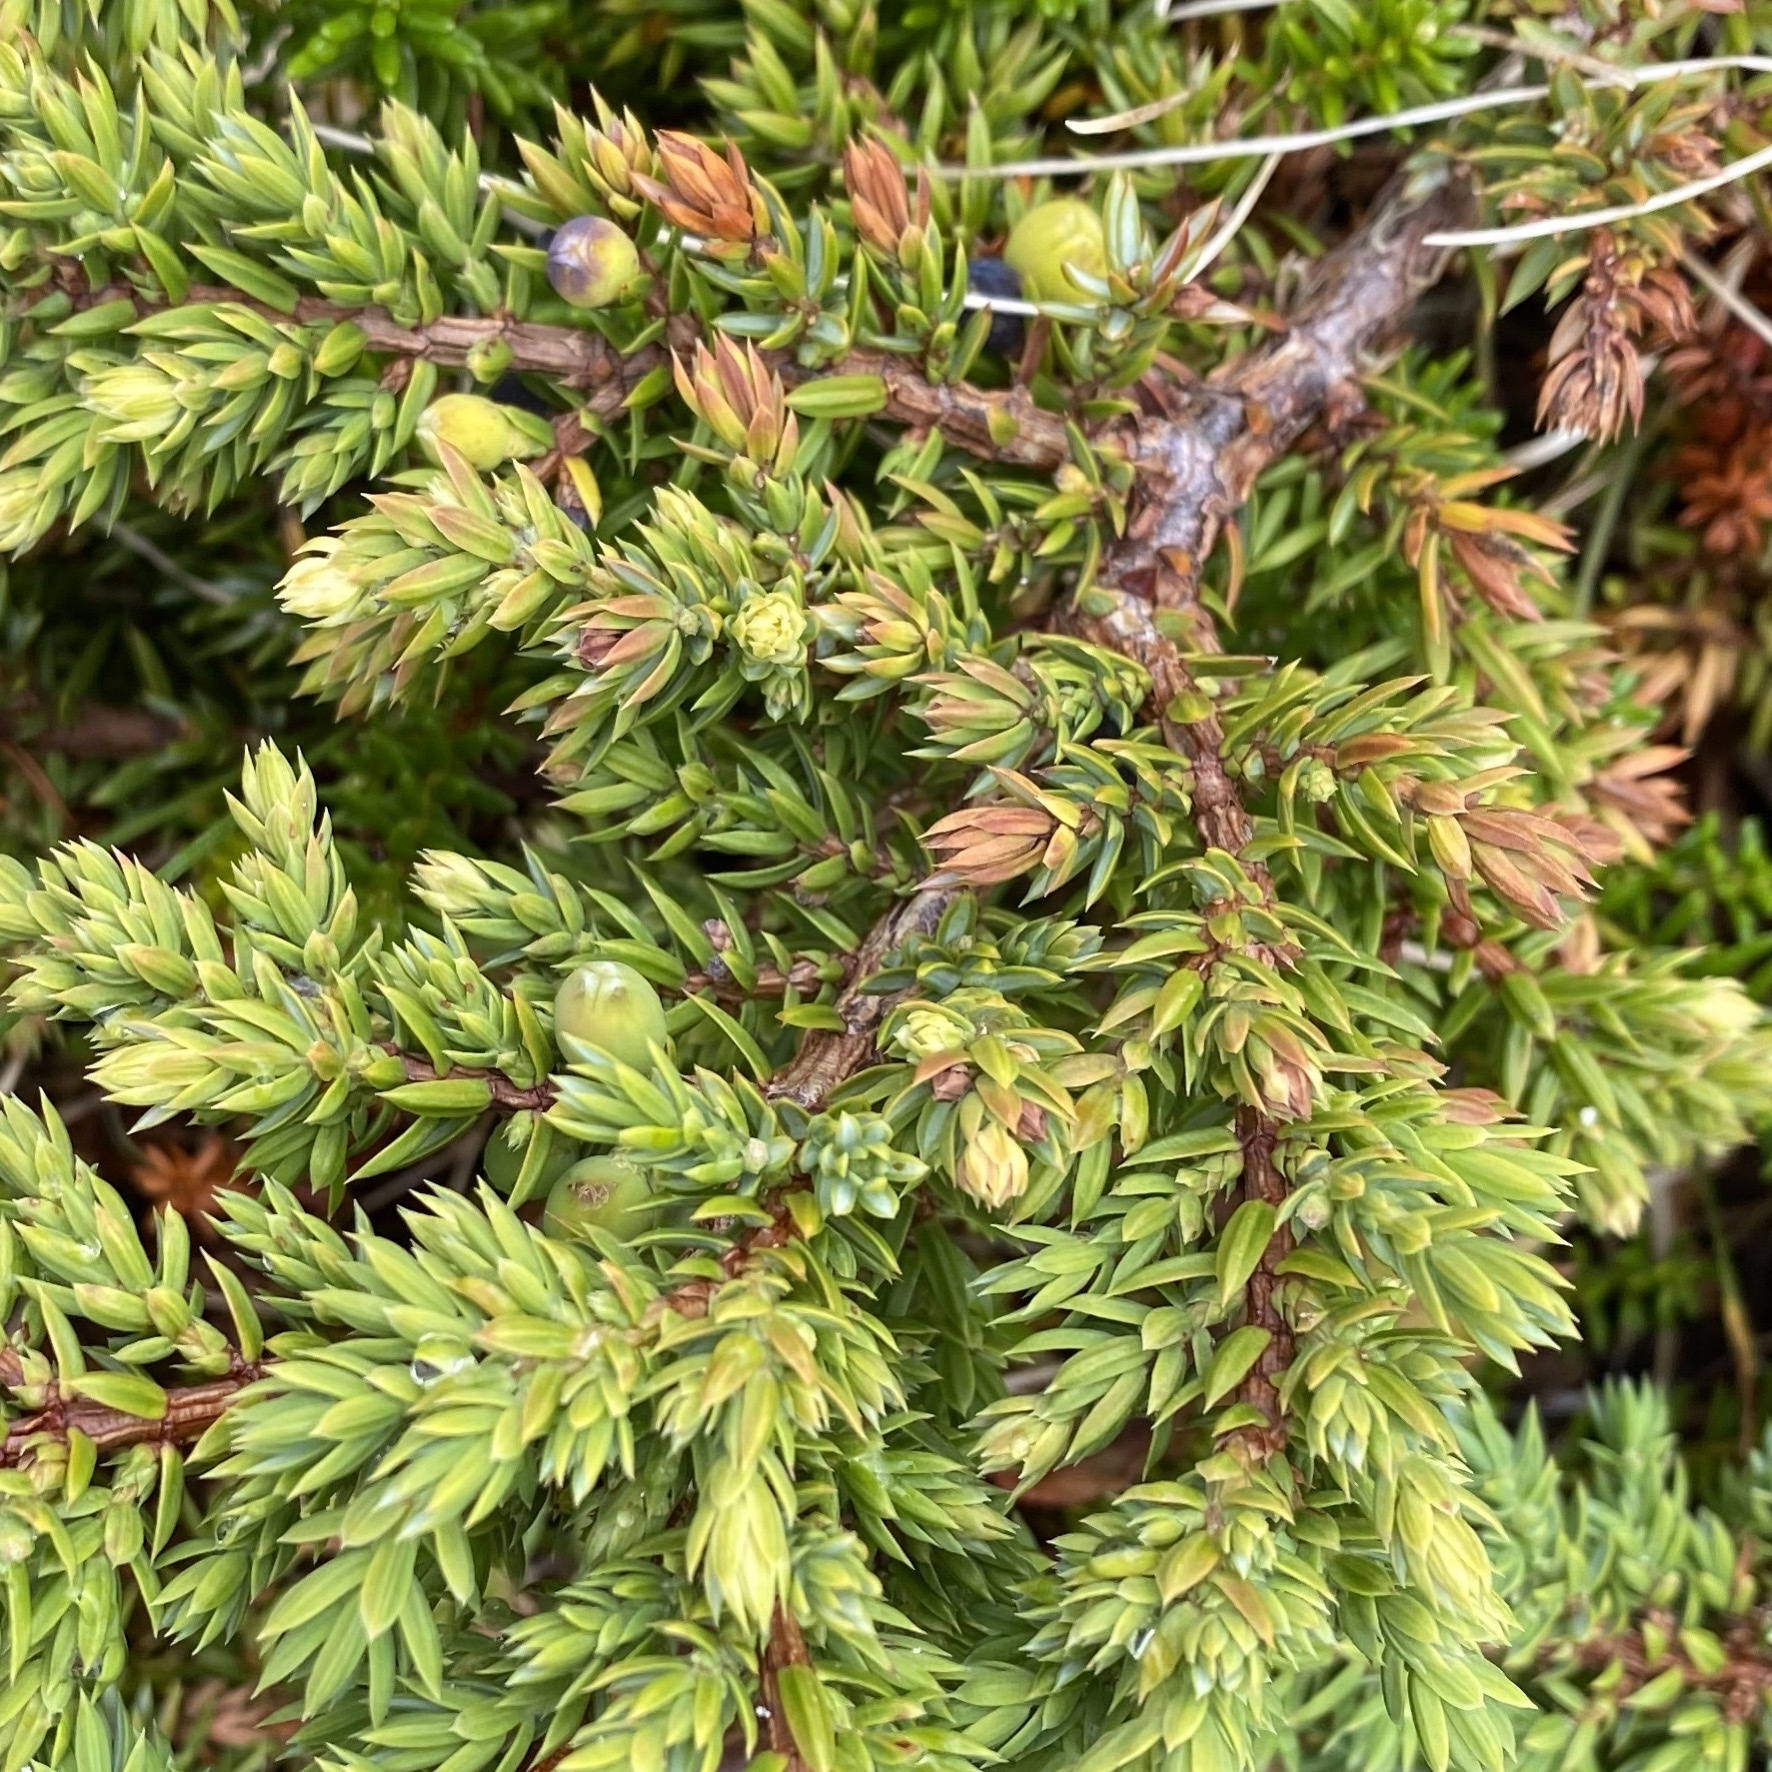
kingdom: Plantae
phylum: Tracheophyta
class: Pinopsida
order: Pinales
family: Cupressaceae
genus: Juniperus
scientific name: Juniperus communis
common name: Common juniper
